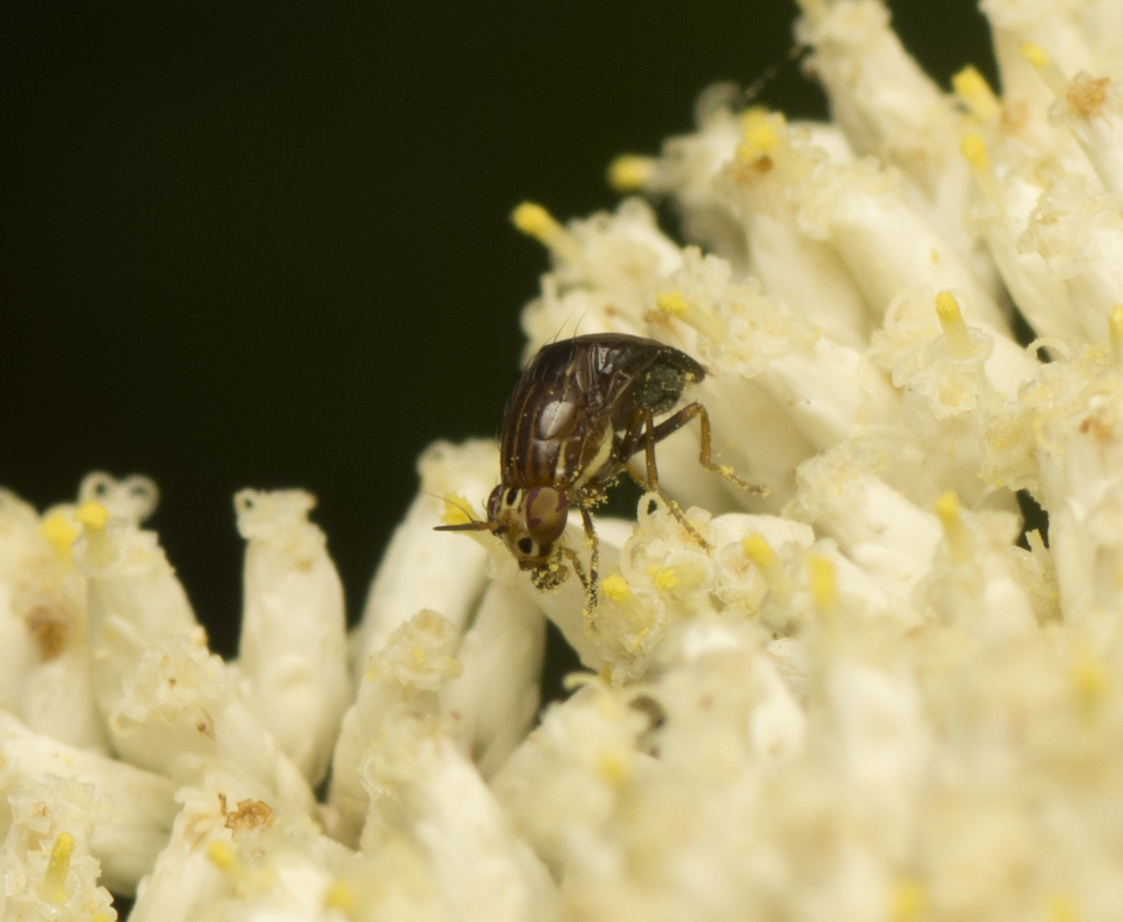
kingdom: Animalia
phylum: Arthropoda
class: Insecta
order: Diptera
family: Lauxaniidae
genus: Steganopsis
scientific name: Steganopsis melanogaster
